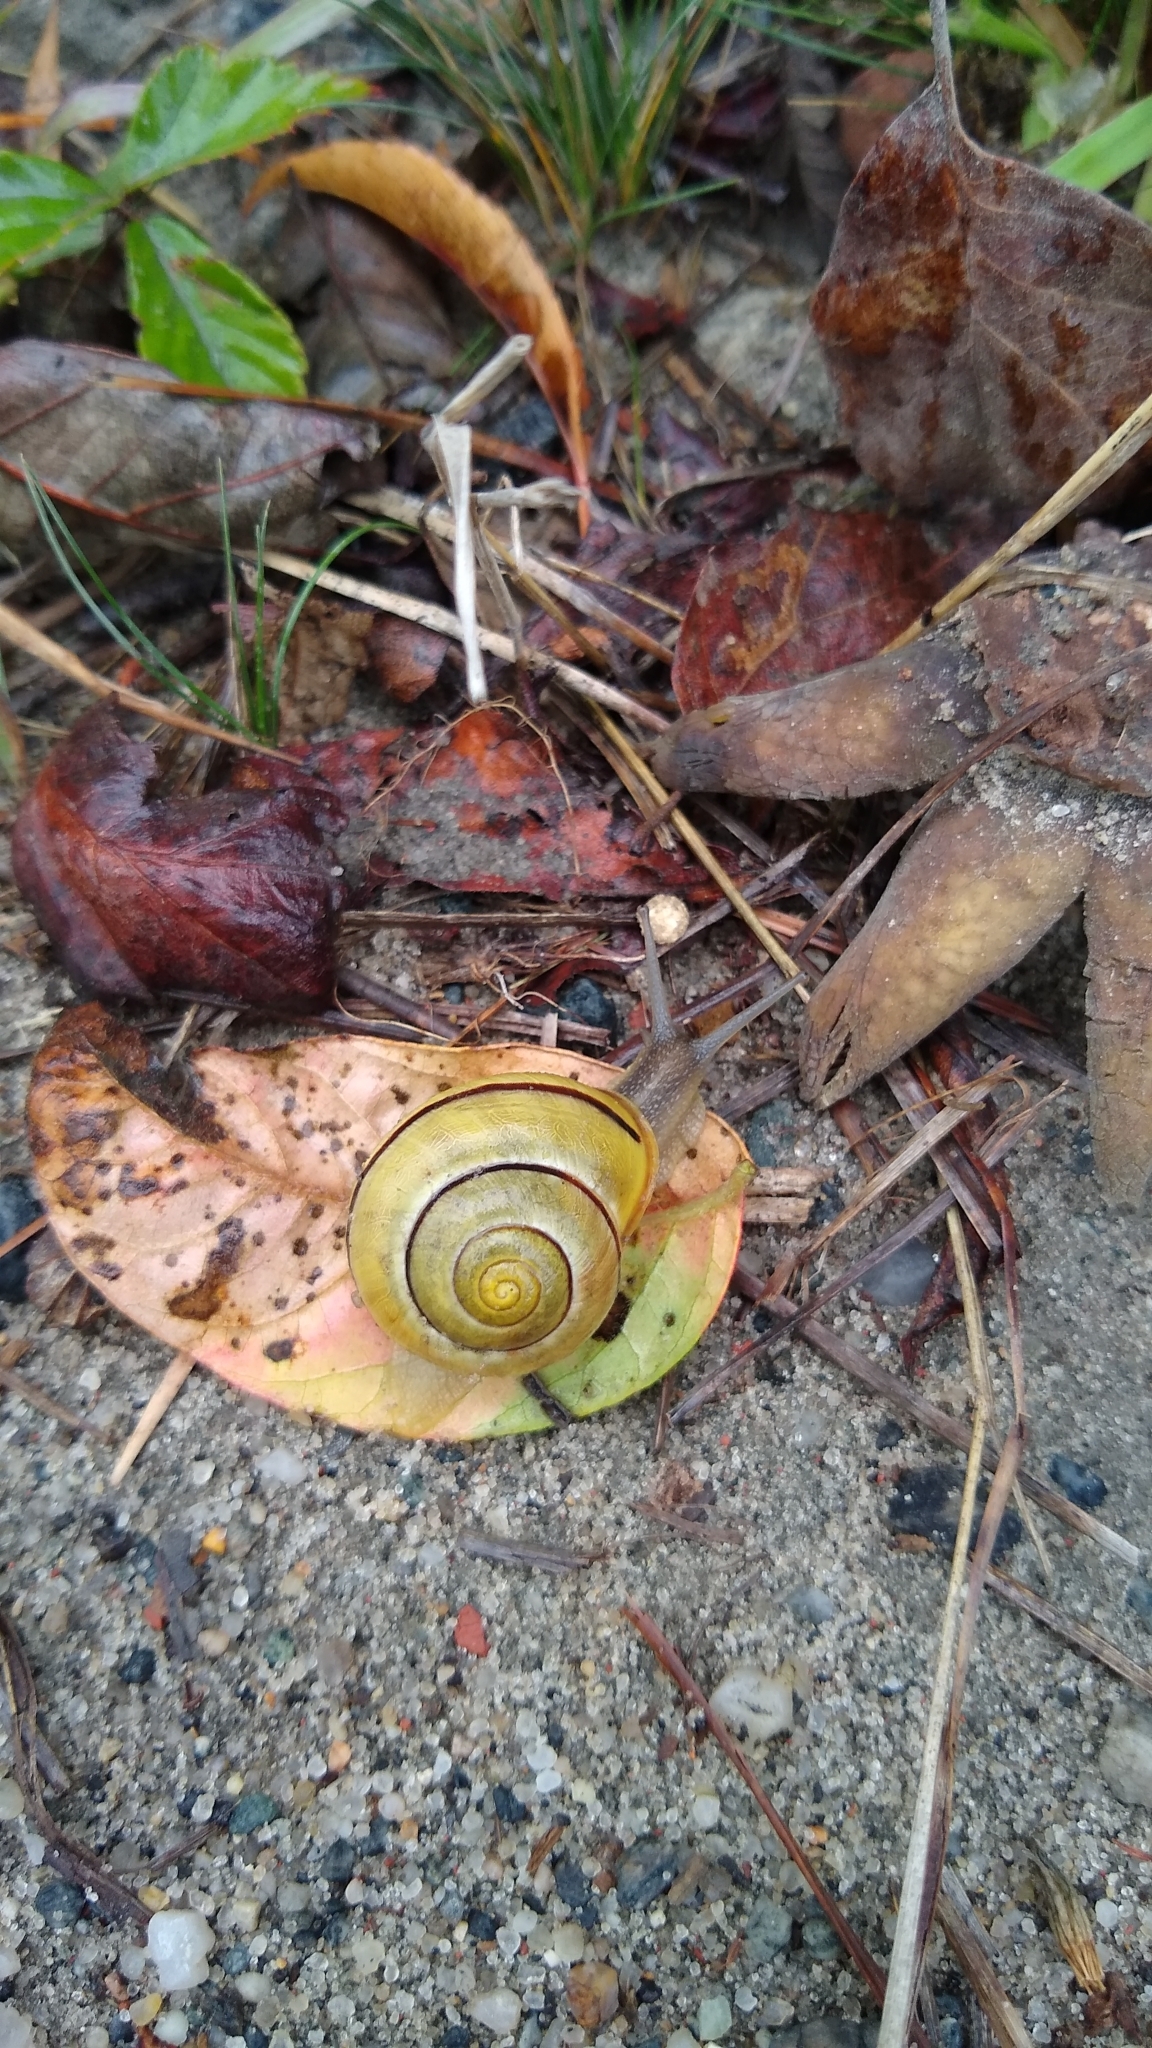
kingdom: Animalia
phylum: Mollusca
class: Gastropoda
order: Stylommatophora
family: Helicidae
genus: Cepaea
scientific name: Cepaea nemoralis
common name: Grovesnail
